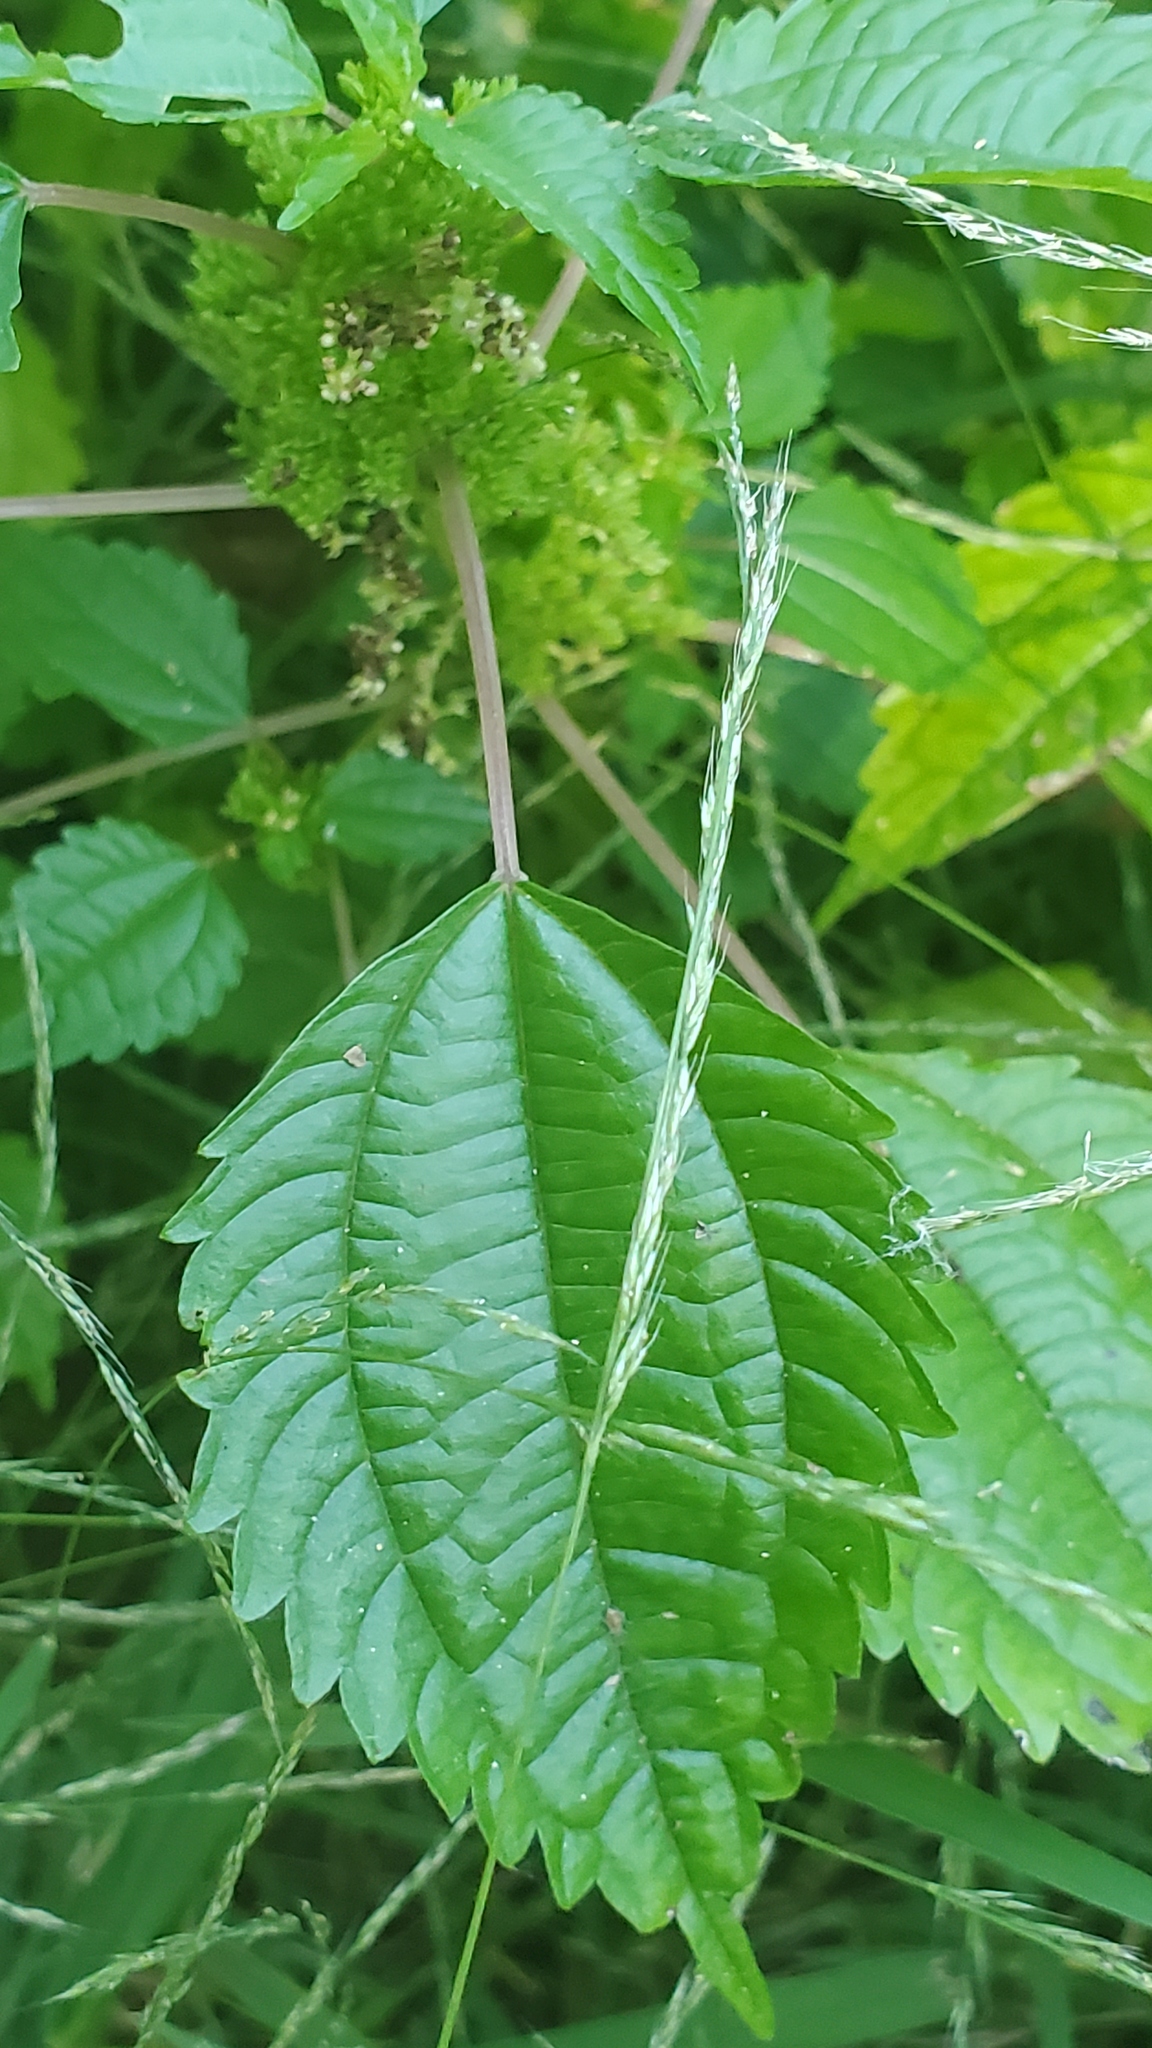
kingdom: Plantae
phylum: Tracheophyta
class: Magnoliopsida
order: Rosales
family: Urticaceae
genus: Pilea
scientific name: Pilea pumila
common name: Clearweed
